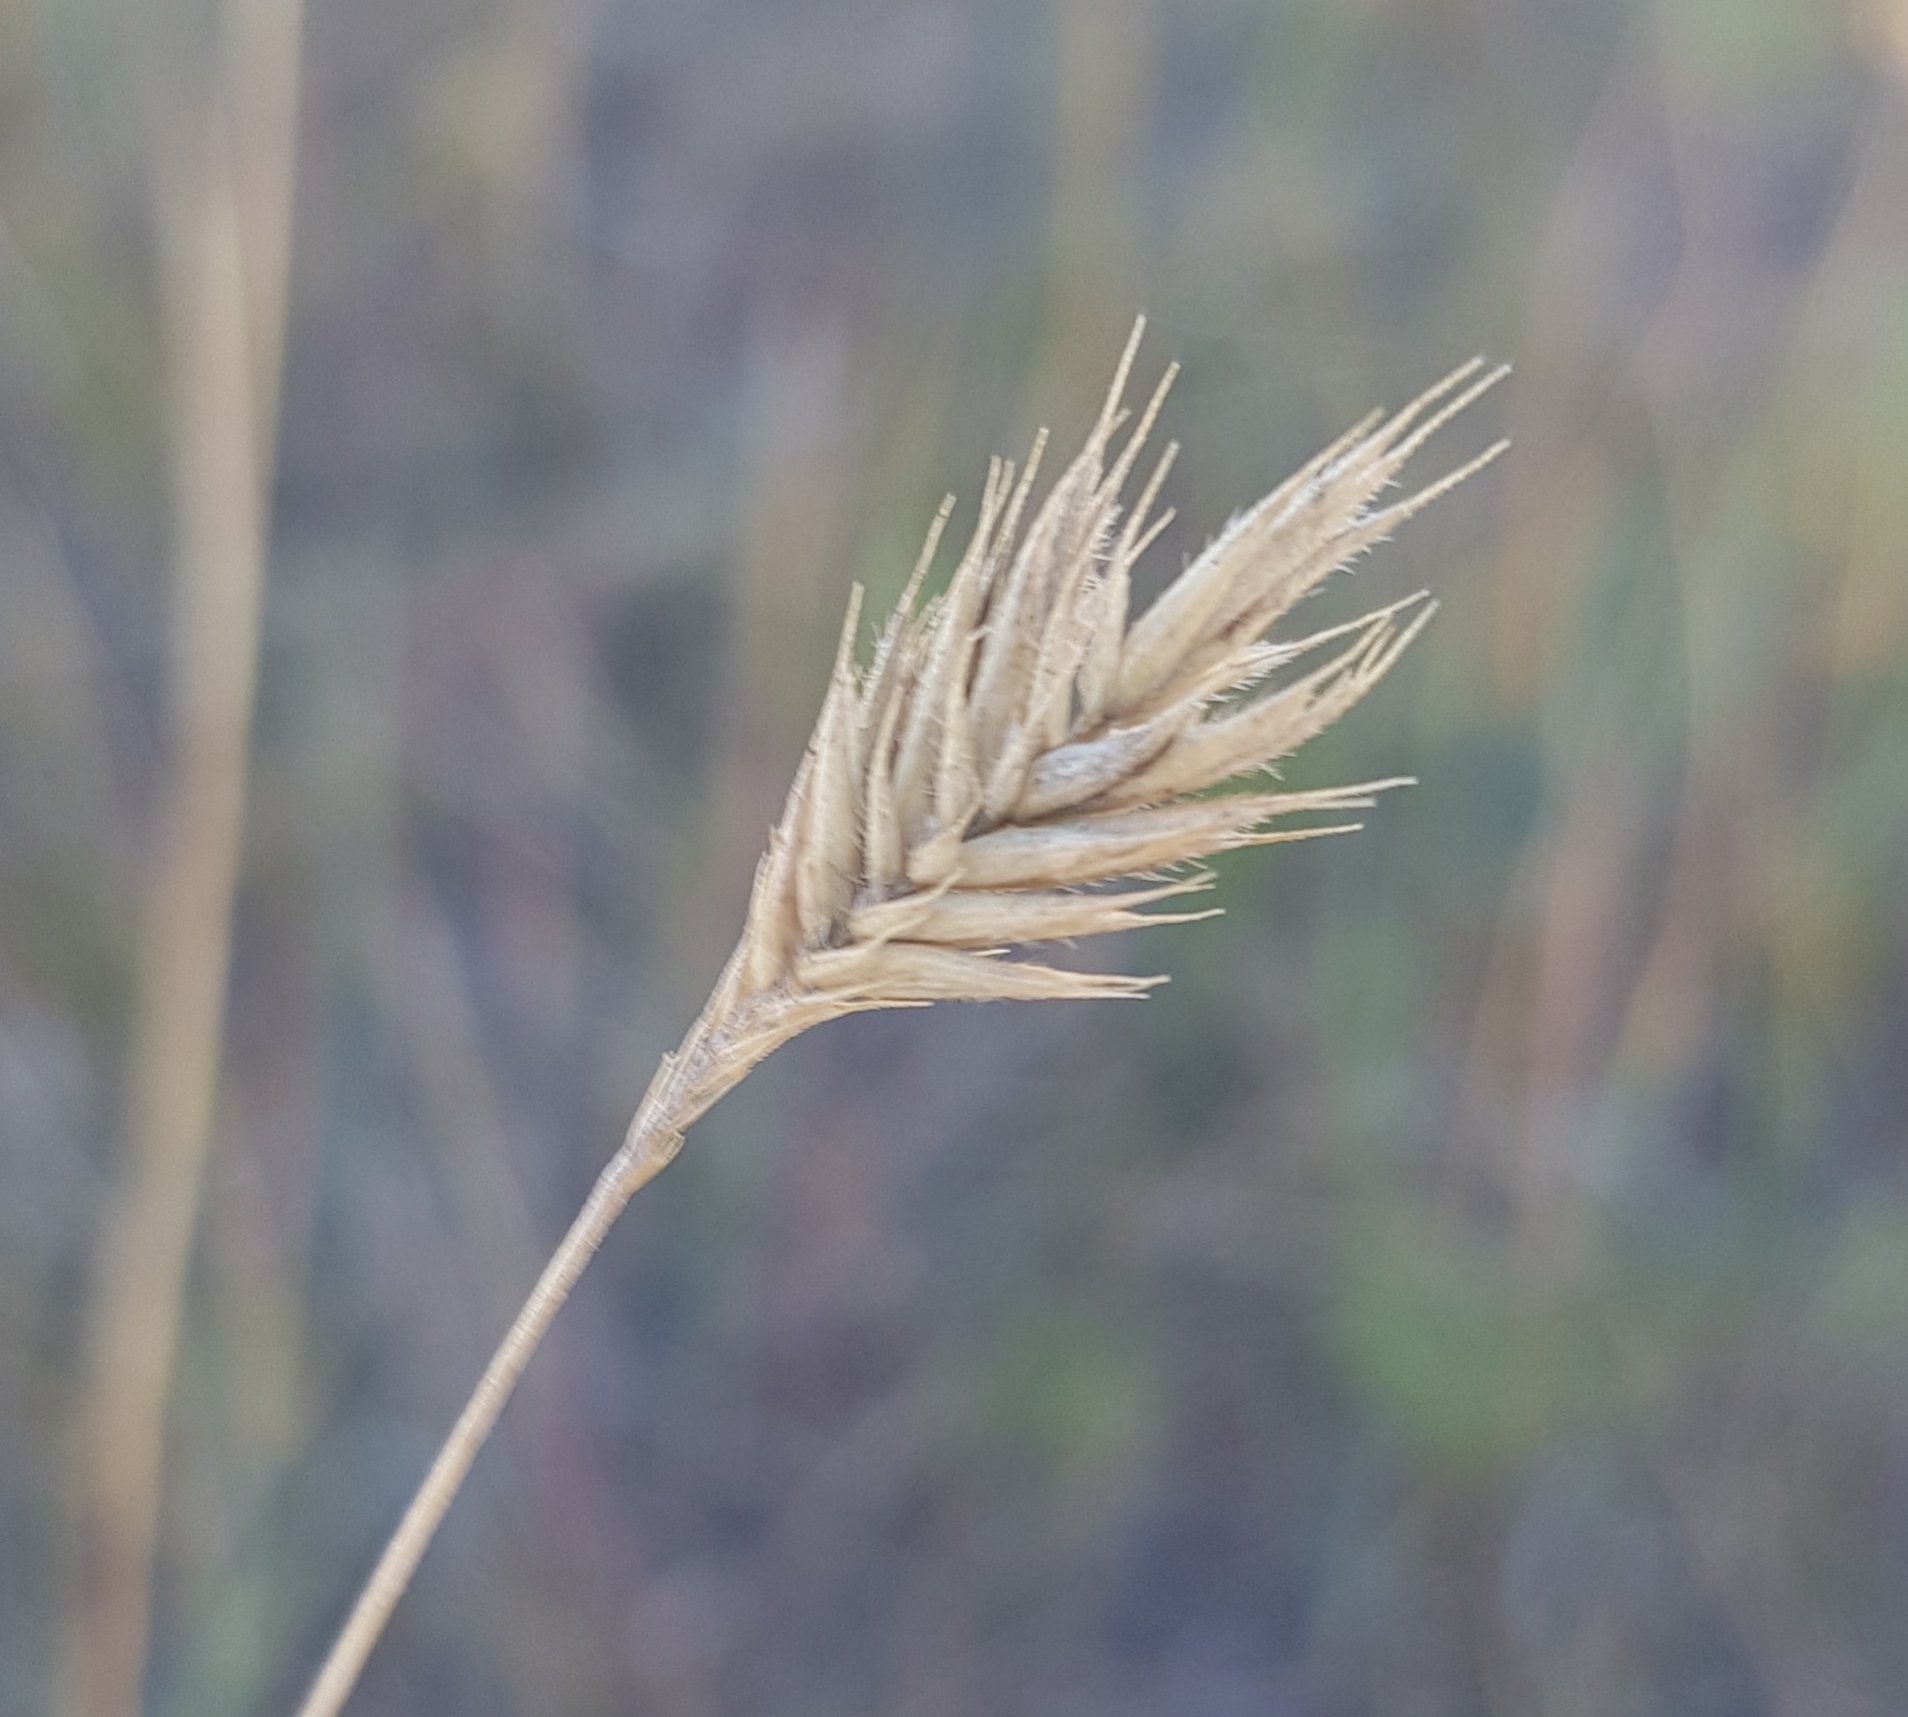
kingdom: Plantae
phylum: Tracheophyta
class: Liliopsida
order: Poales
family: Poaceae
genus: Agropyron
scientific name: Agropyron cristatum
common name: Crested wheatgrass
